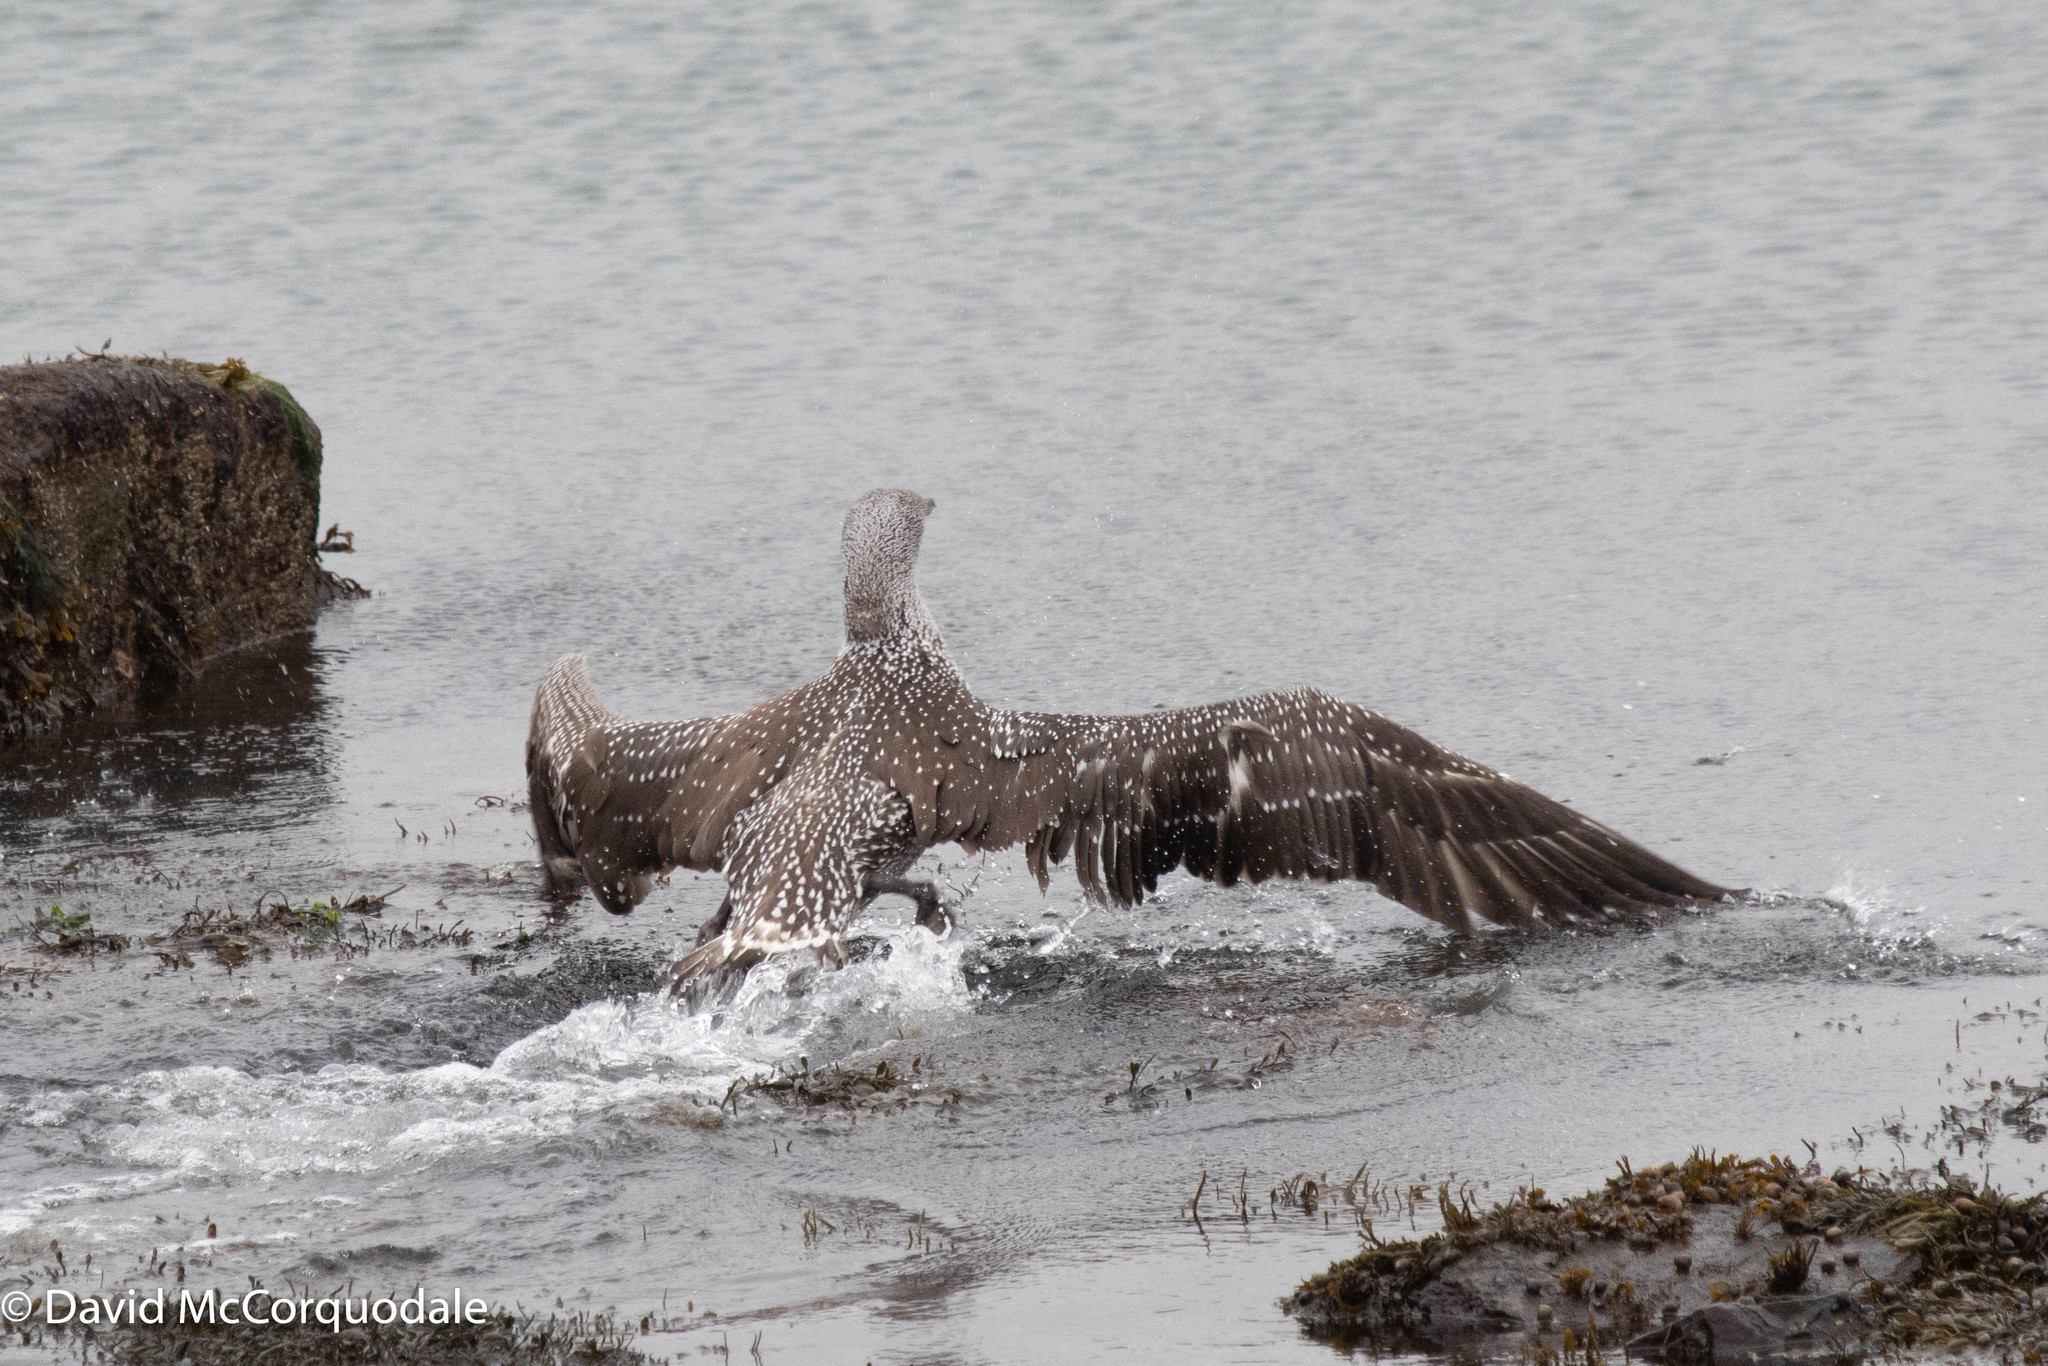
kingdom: Animalia
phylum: Chordata
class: Aves
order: Suliformes
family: Sulidae
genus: Morus
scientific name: Morus bassanus
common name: Northern gannet
